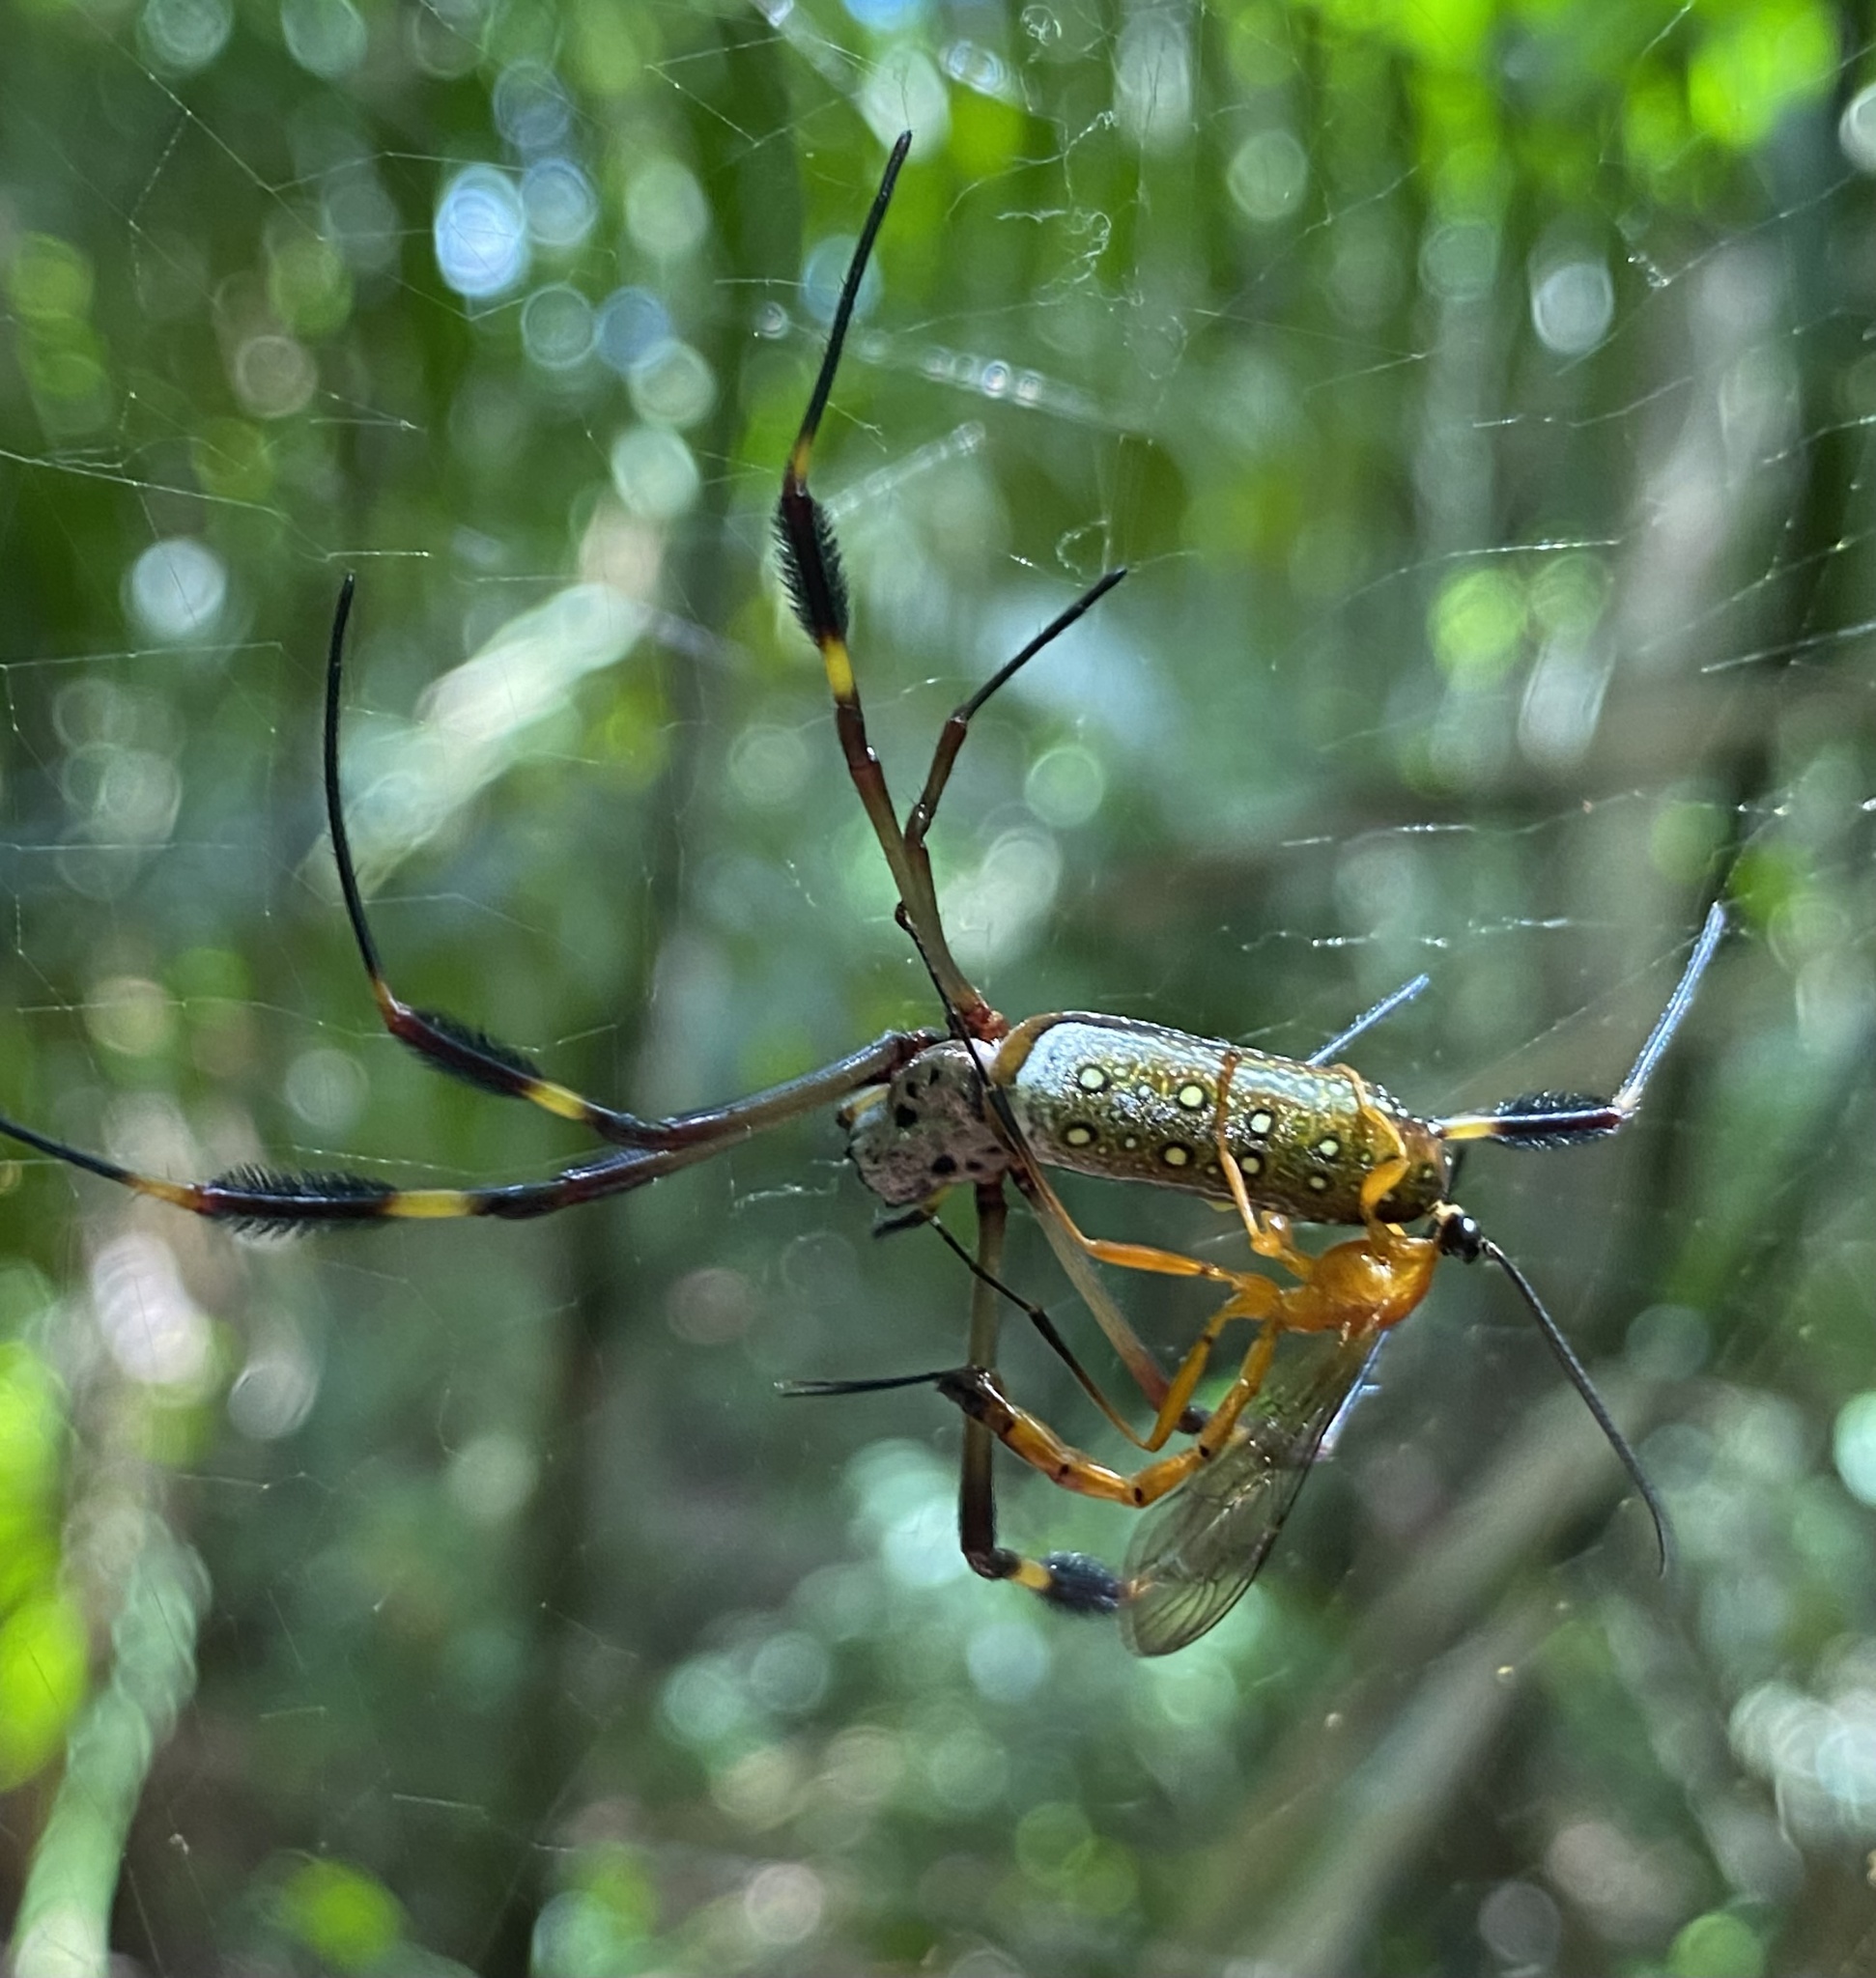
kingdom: Animalia
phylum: Arthropoda
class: Arachnida
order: Araneae
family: Araneidae
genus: Trichonephila
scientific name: Trichonephila clavipes
